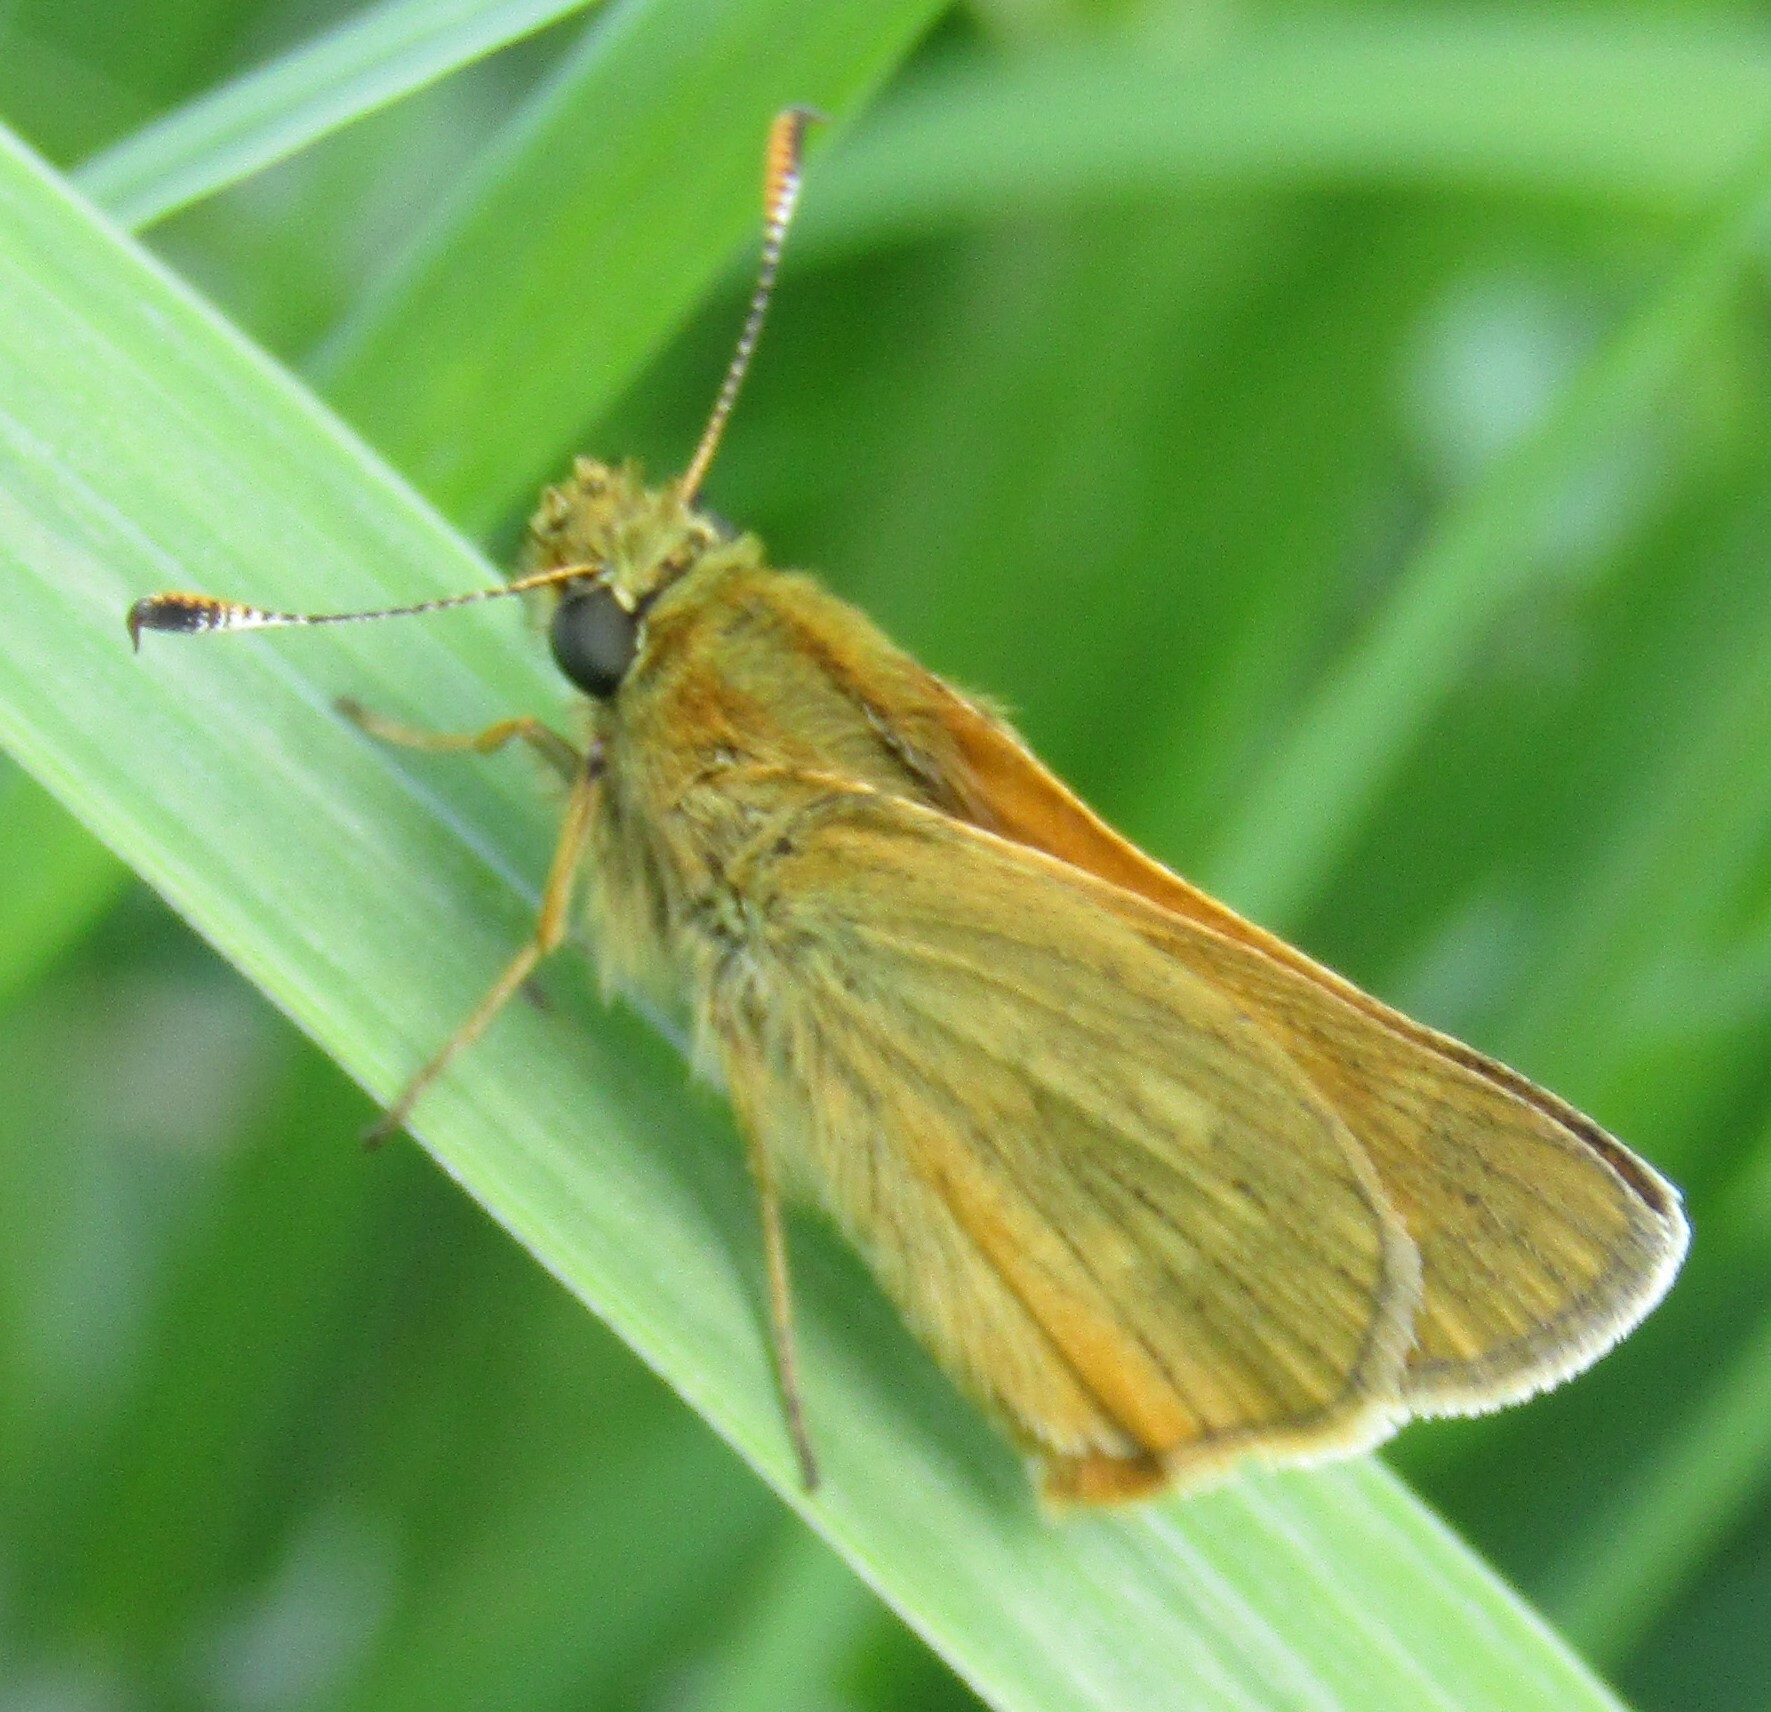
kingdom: Animalia
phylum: Arthropoda
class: Insecta
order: Lepidoptera
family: Hesperiidae
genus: Ochlodes
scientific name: Ochlodes venata
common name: Large skipper
